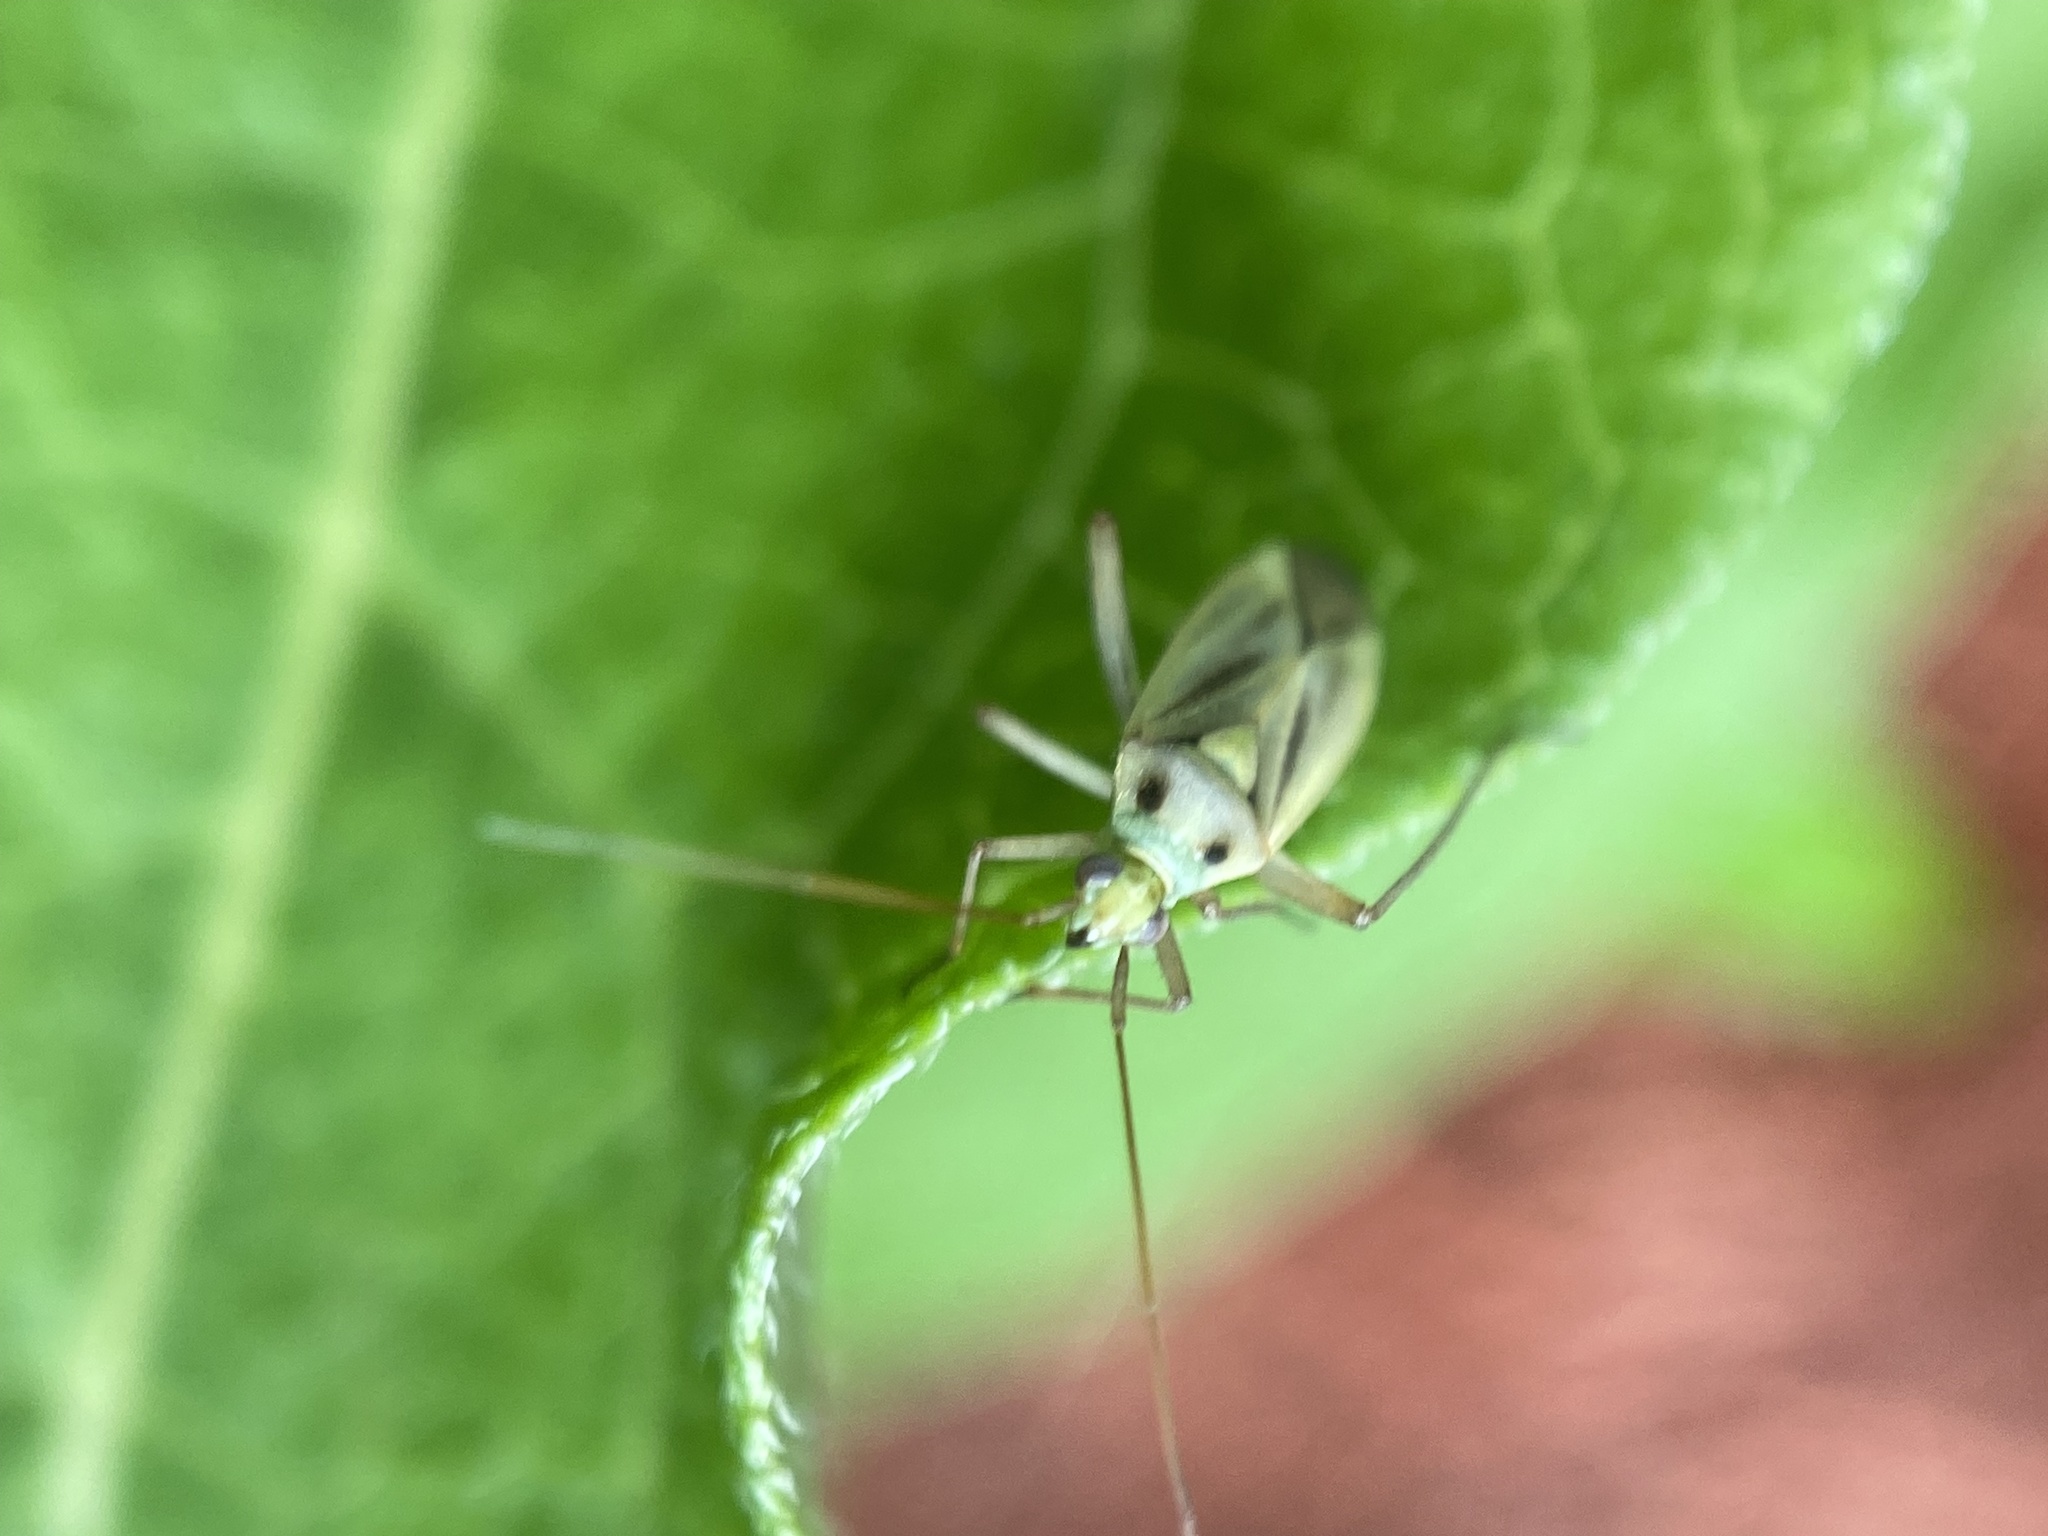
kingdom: Animalia
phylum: Arthropoda
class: Insecta
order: Hemiptera
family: Miridae
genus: Stenotus
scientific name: Stenotus binotatus
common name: Plant bug
